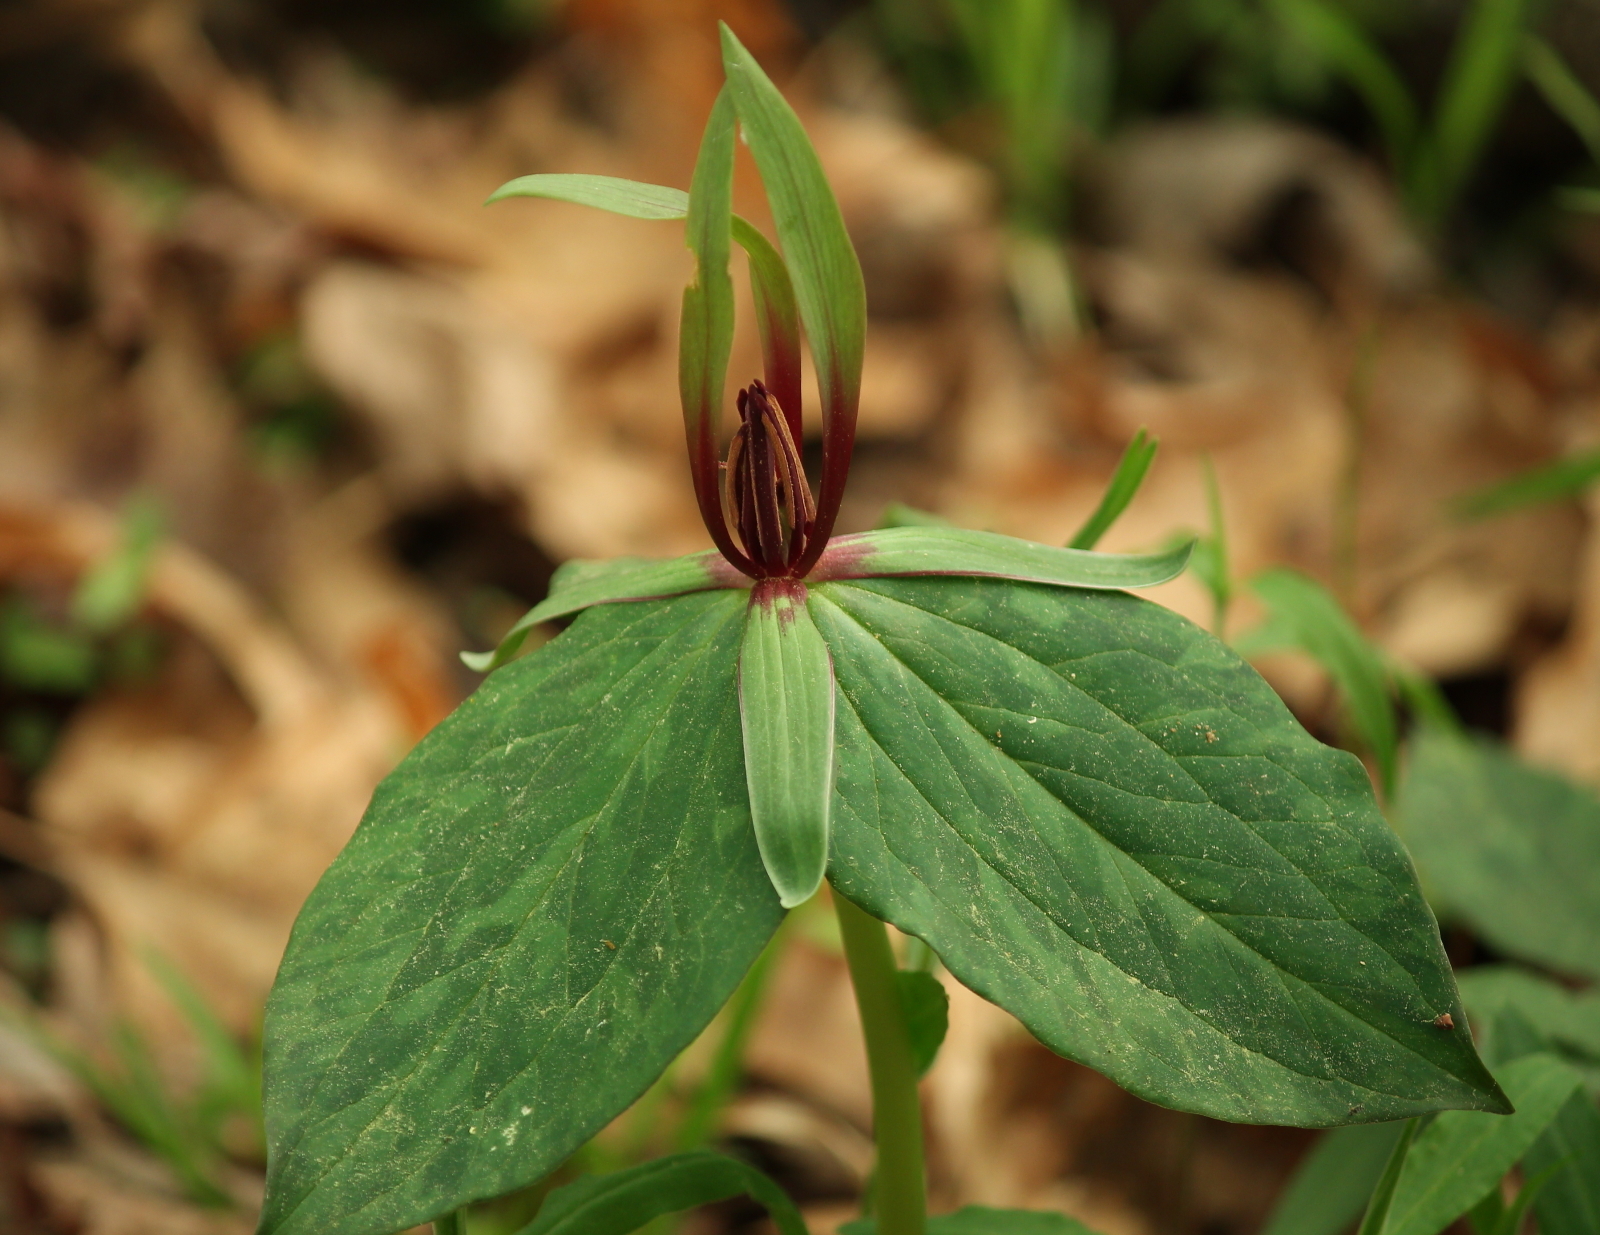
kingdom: Plantae
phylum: Tracheophyta
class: Liliopsida
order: Liliales
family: Melanthiaceae
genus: Trillium
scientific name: Trillium viridescens
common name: Ozark green trillium
